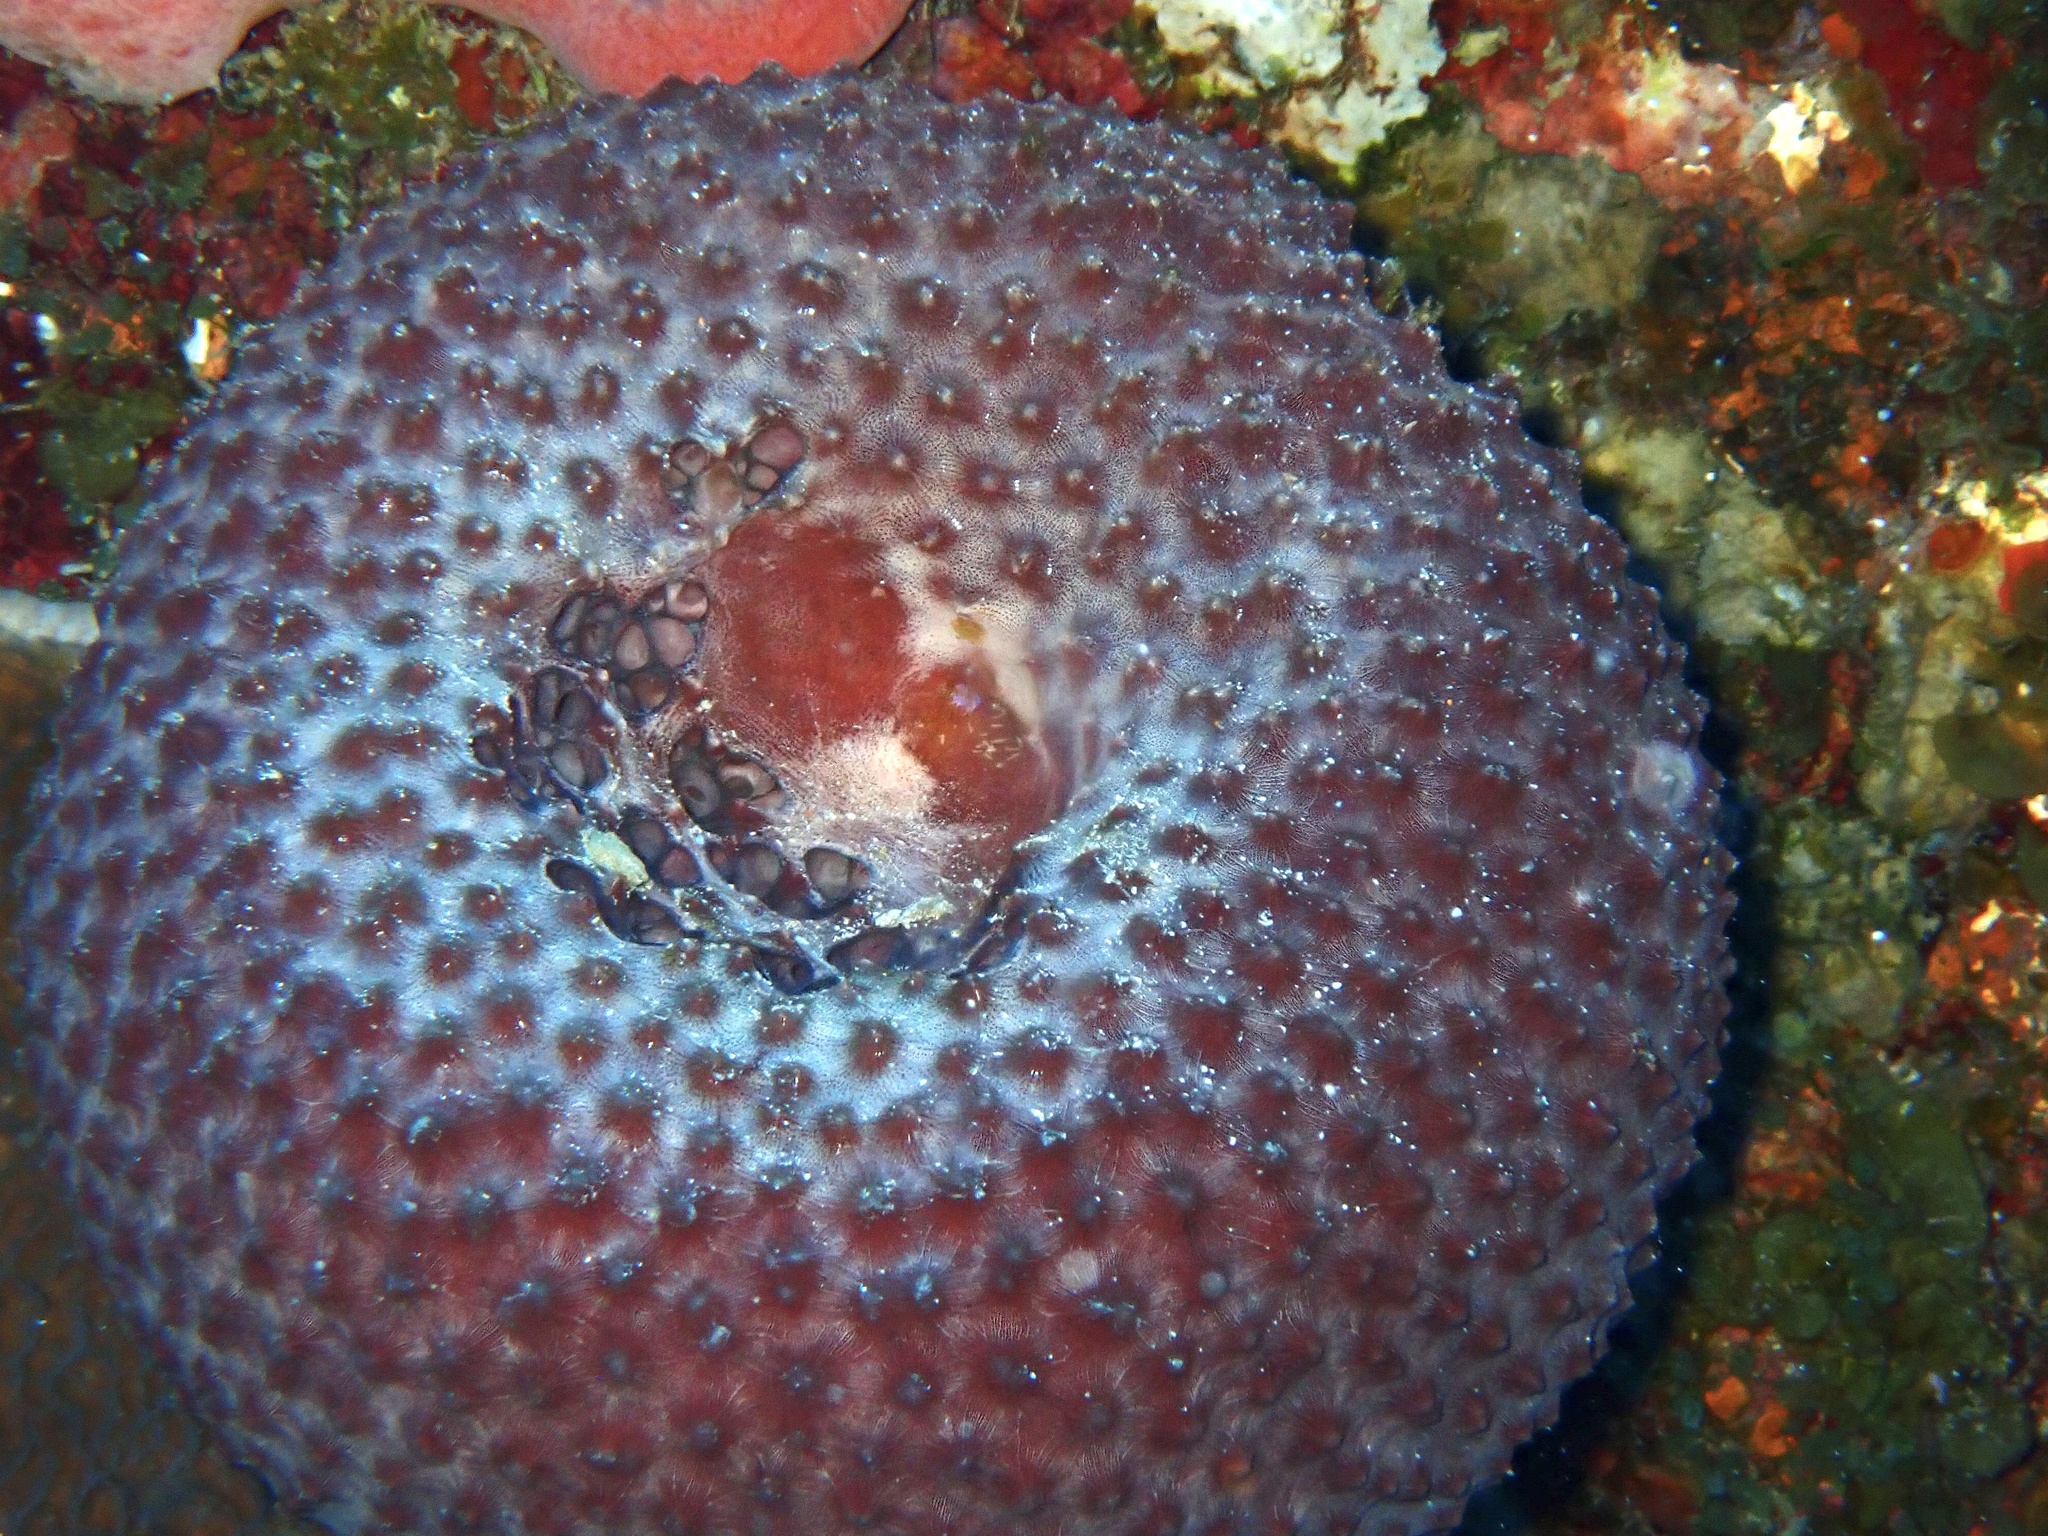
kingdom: Animalia
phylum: Porifera
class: Demospongiae
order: Dictyoceratida
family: Irciniidae
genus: Ircinia
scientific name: Ircinia strobilina
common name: Cake sponge
